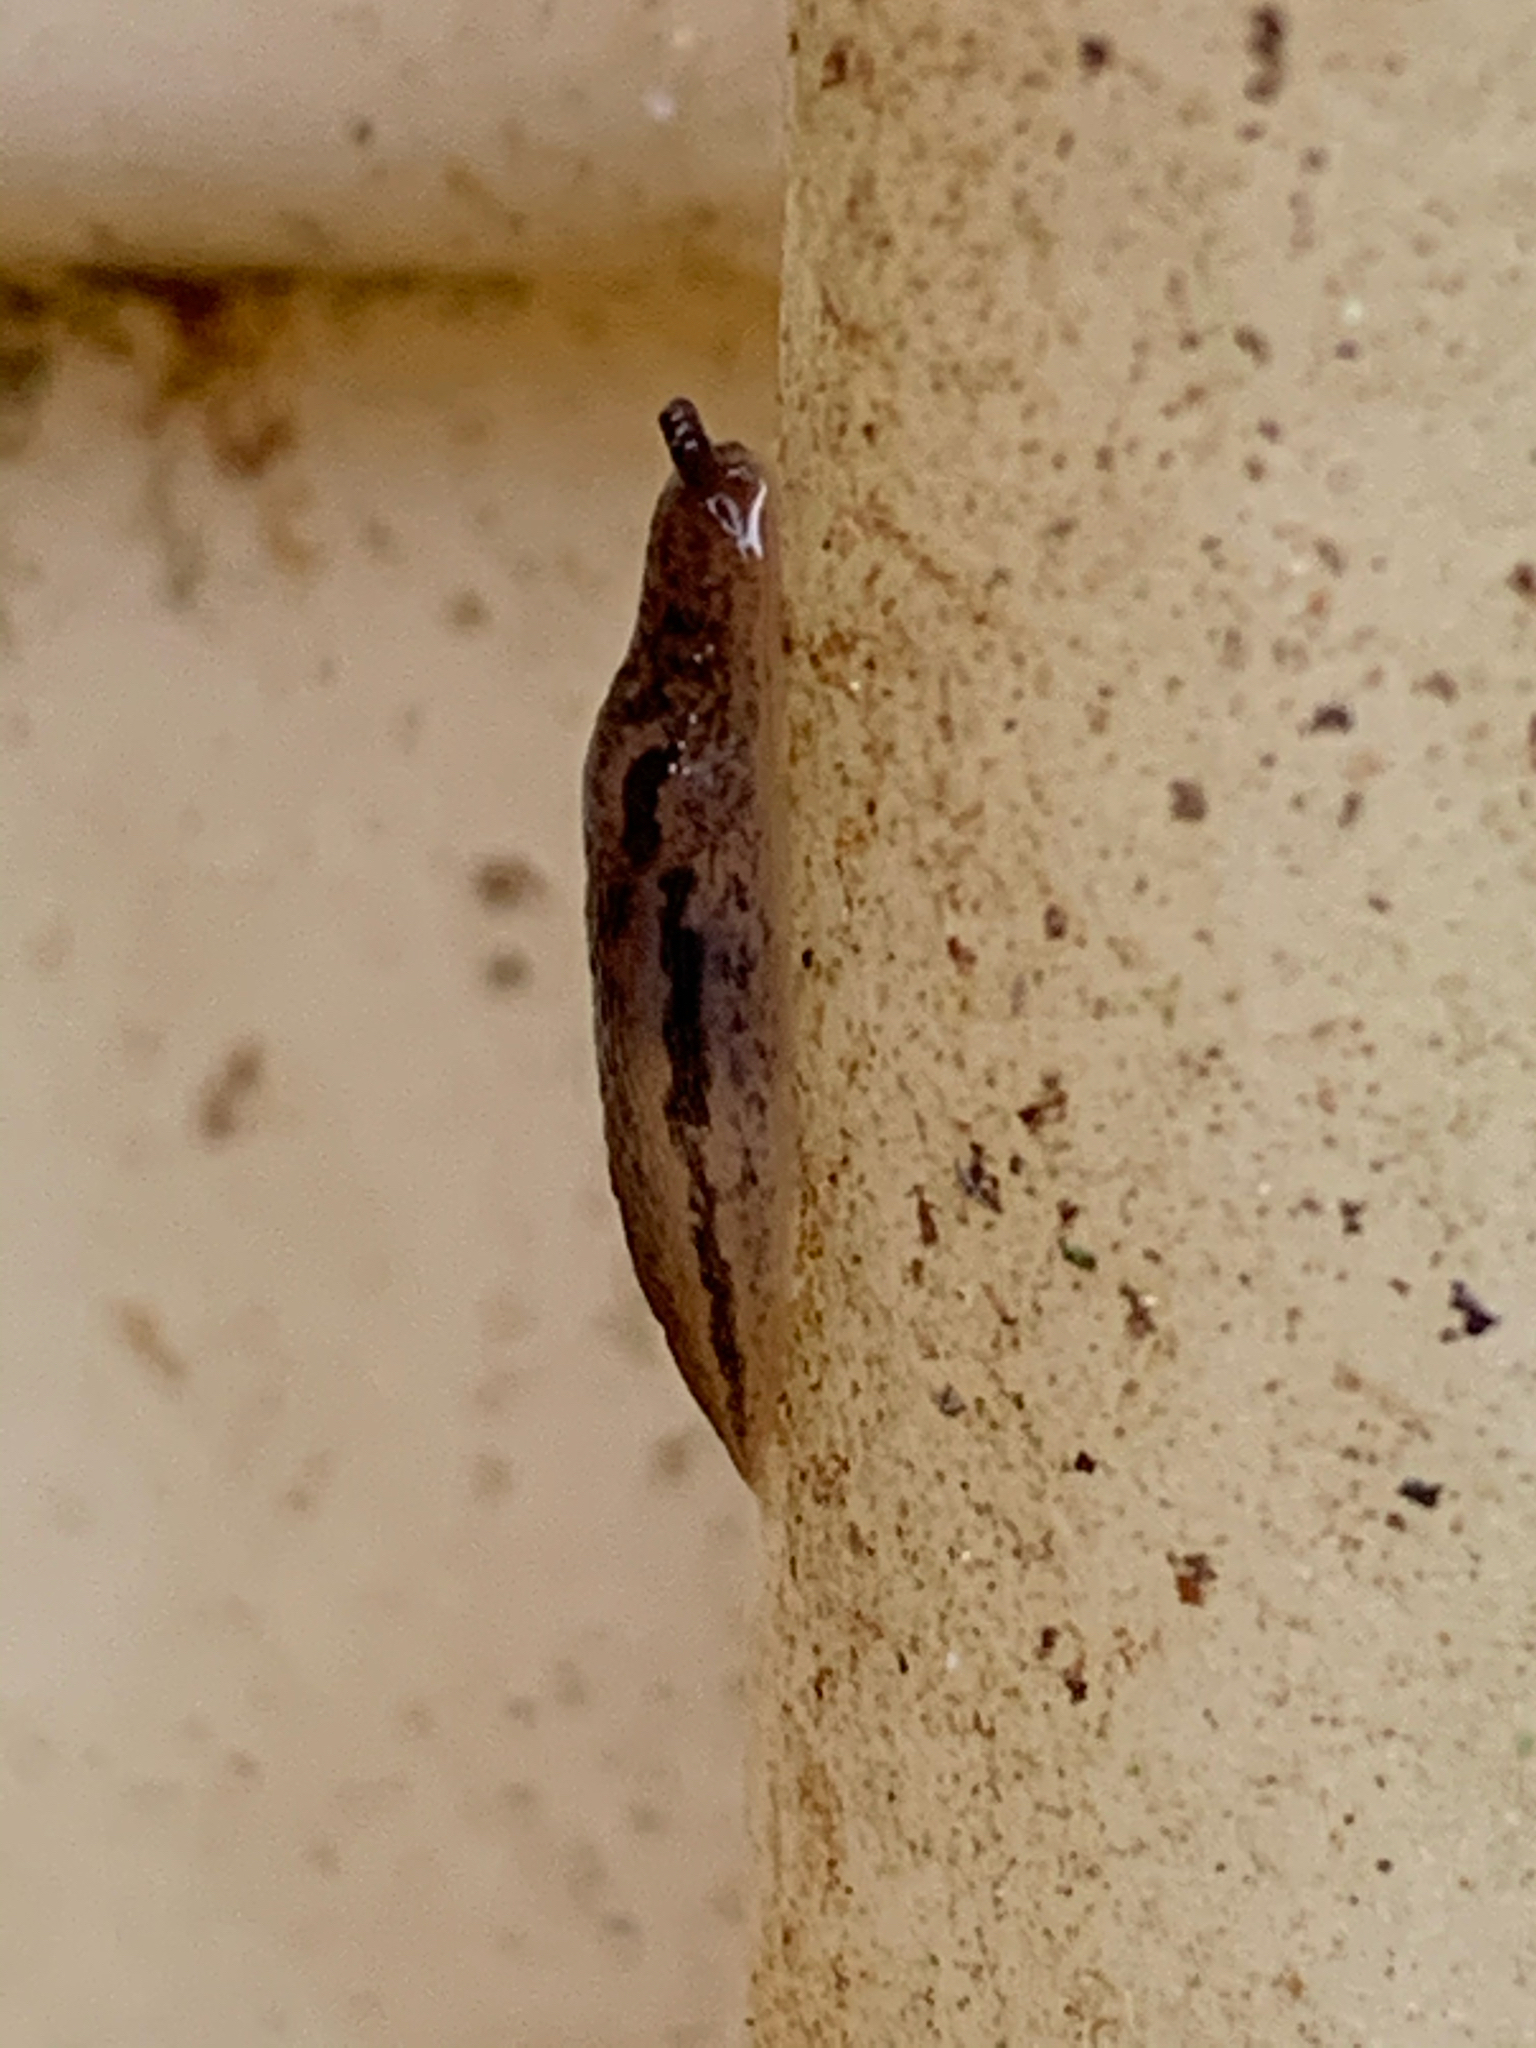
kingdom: Animalia
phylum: Mollusca
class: Gastropoda
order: Stylommatophora
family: Limacidae
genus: Limax
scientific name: Limax maximus
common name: Great grey slug
